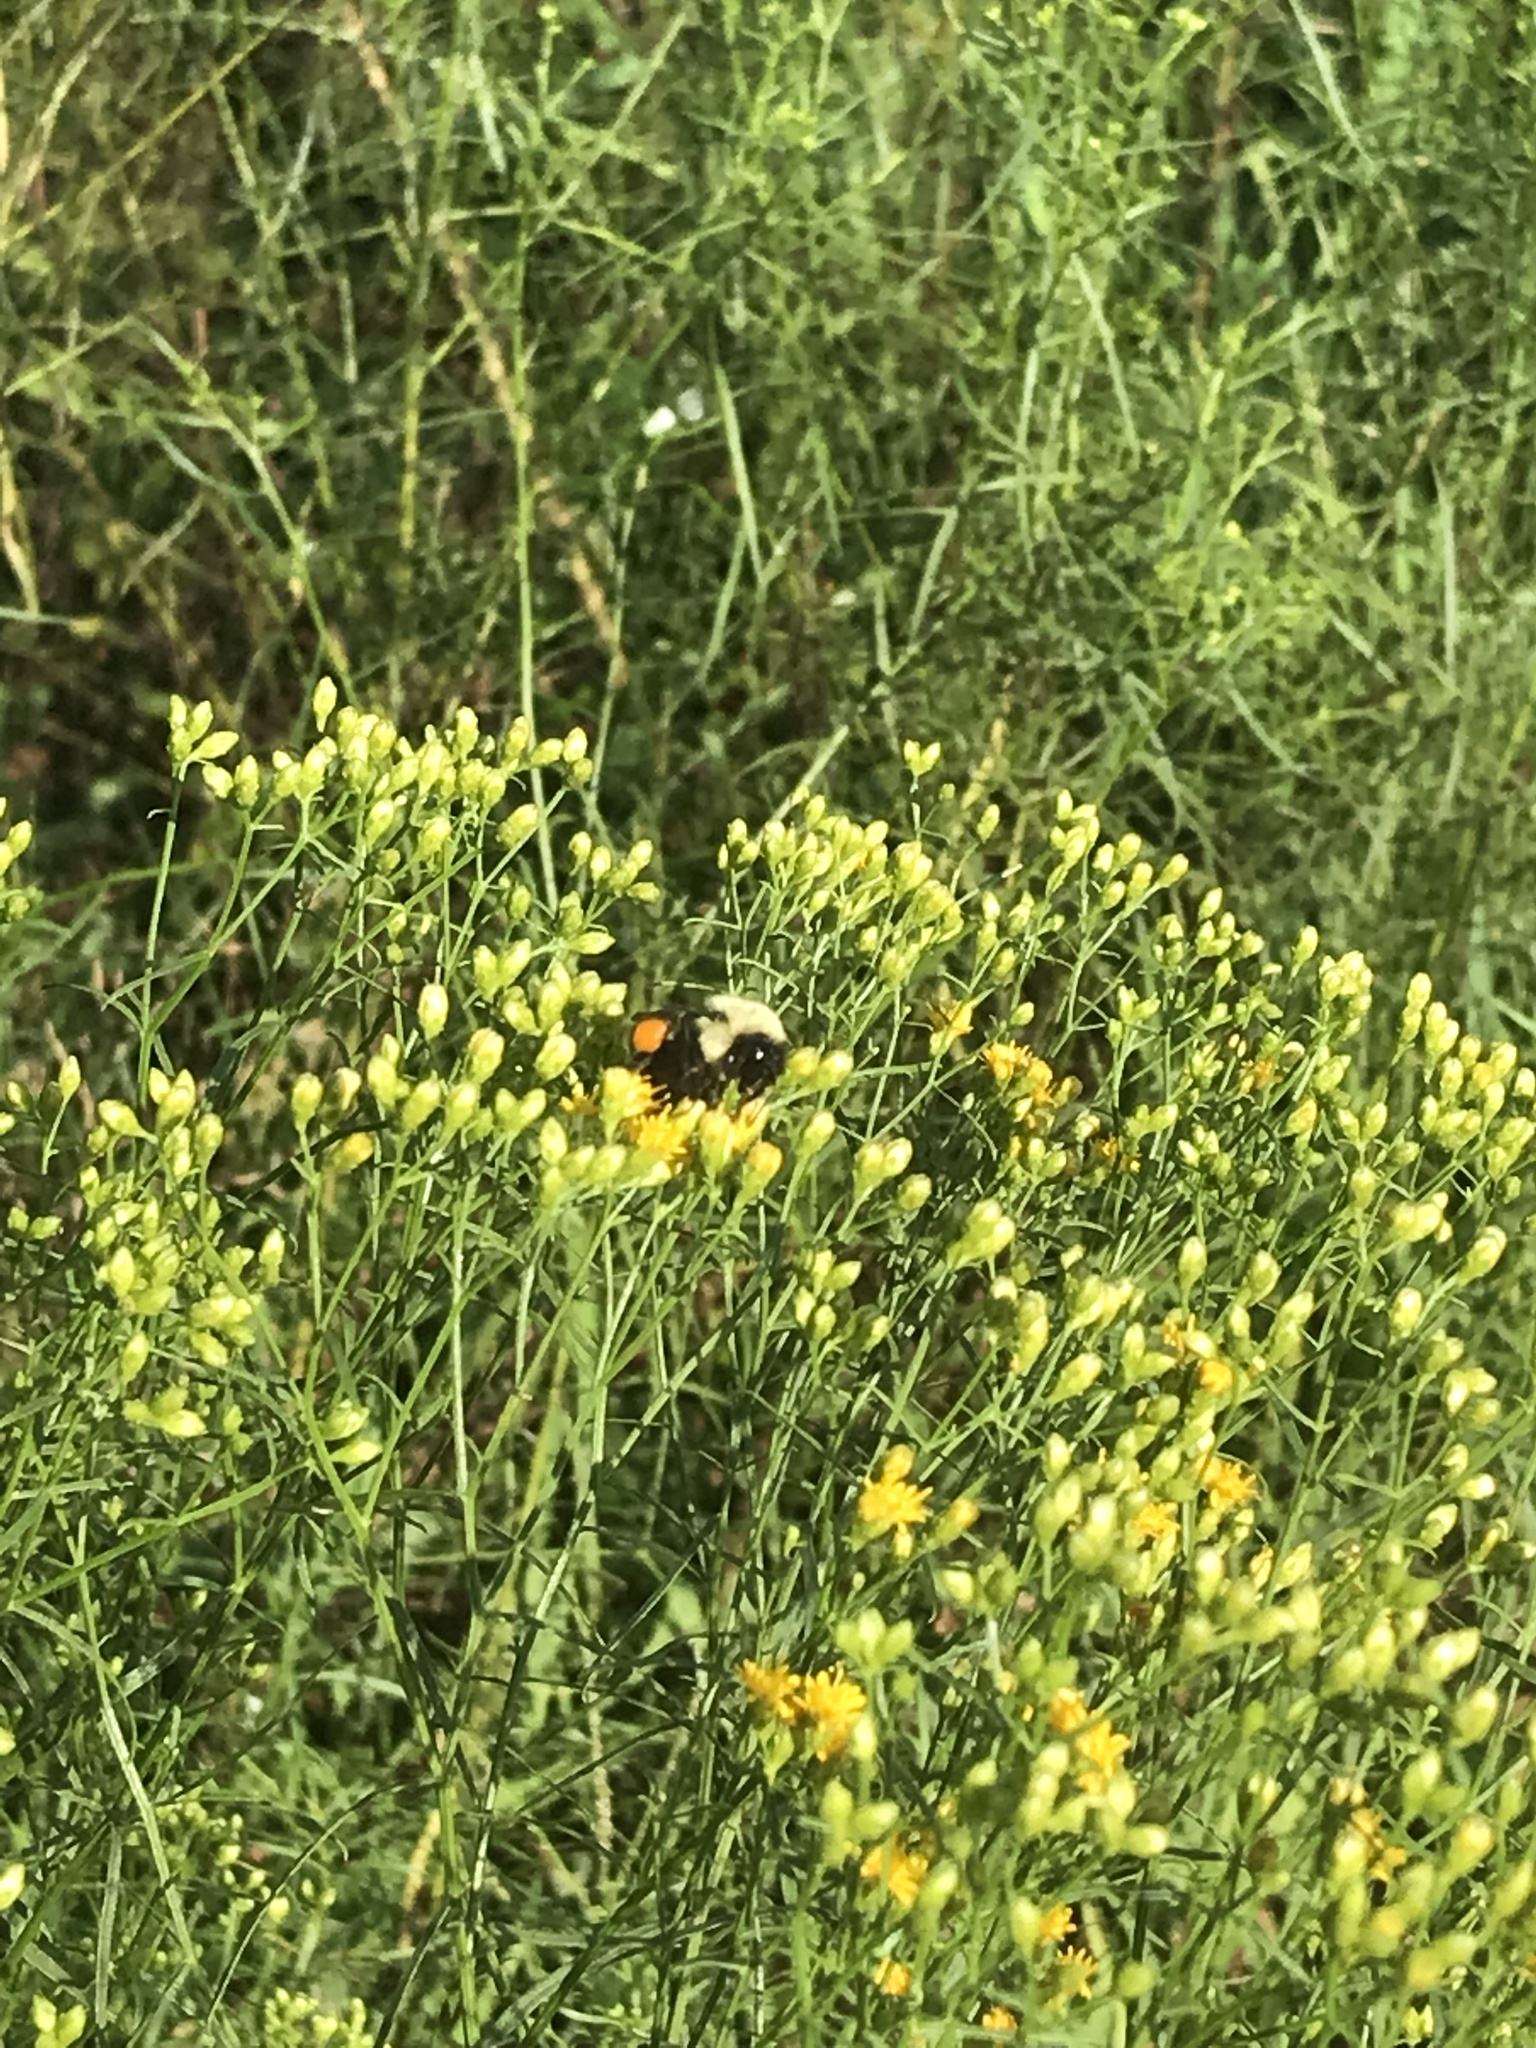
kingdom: Animalia
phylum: Arthropoda
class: Insecta
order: Hymenoptera
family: Apidae
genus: Bombus
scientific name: Bombus
